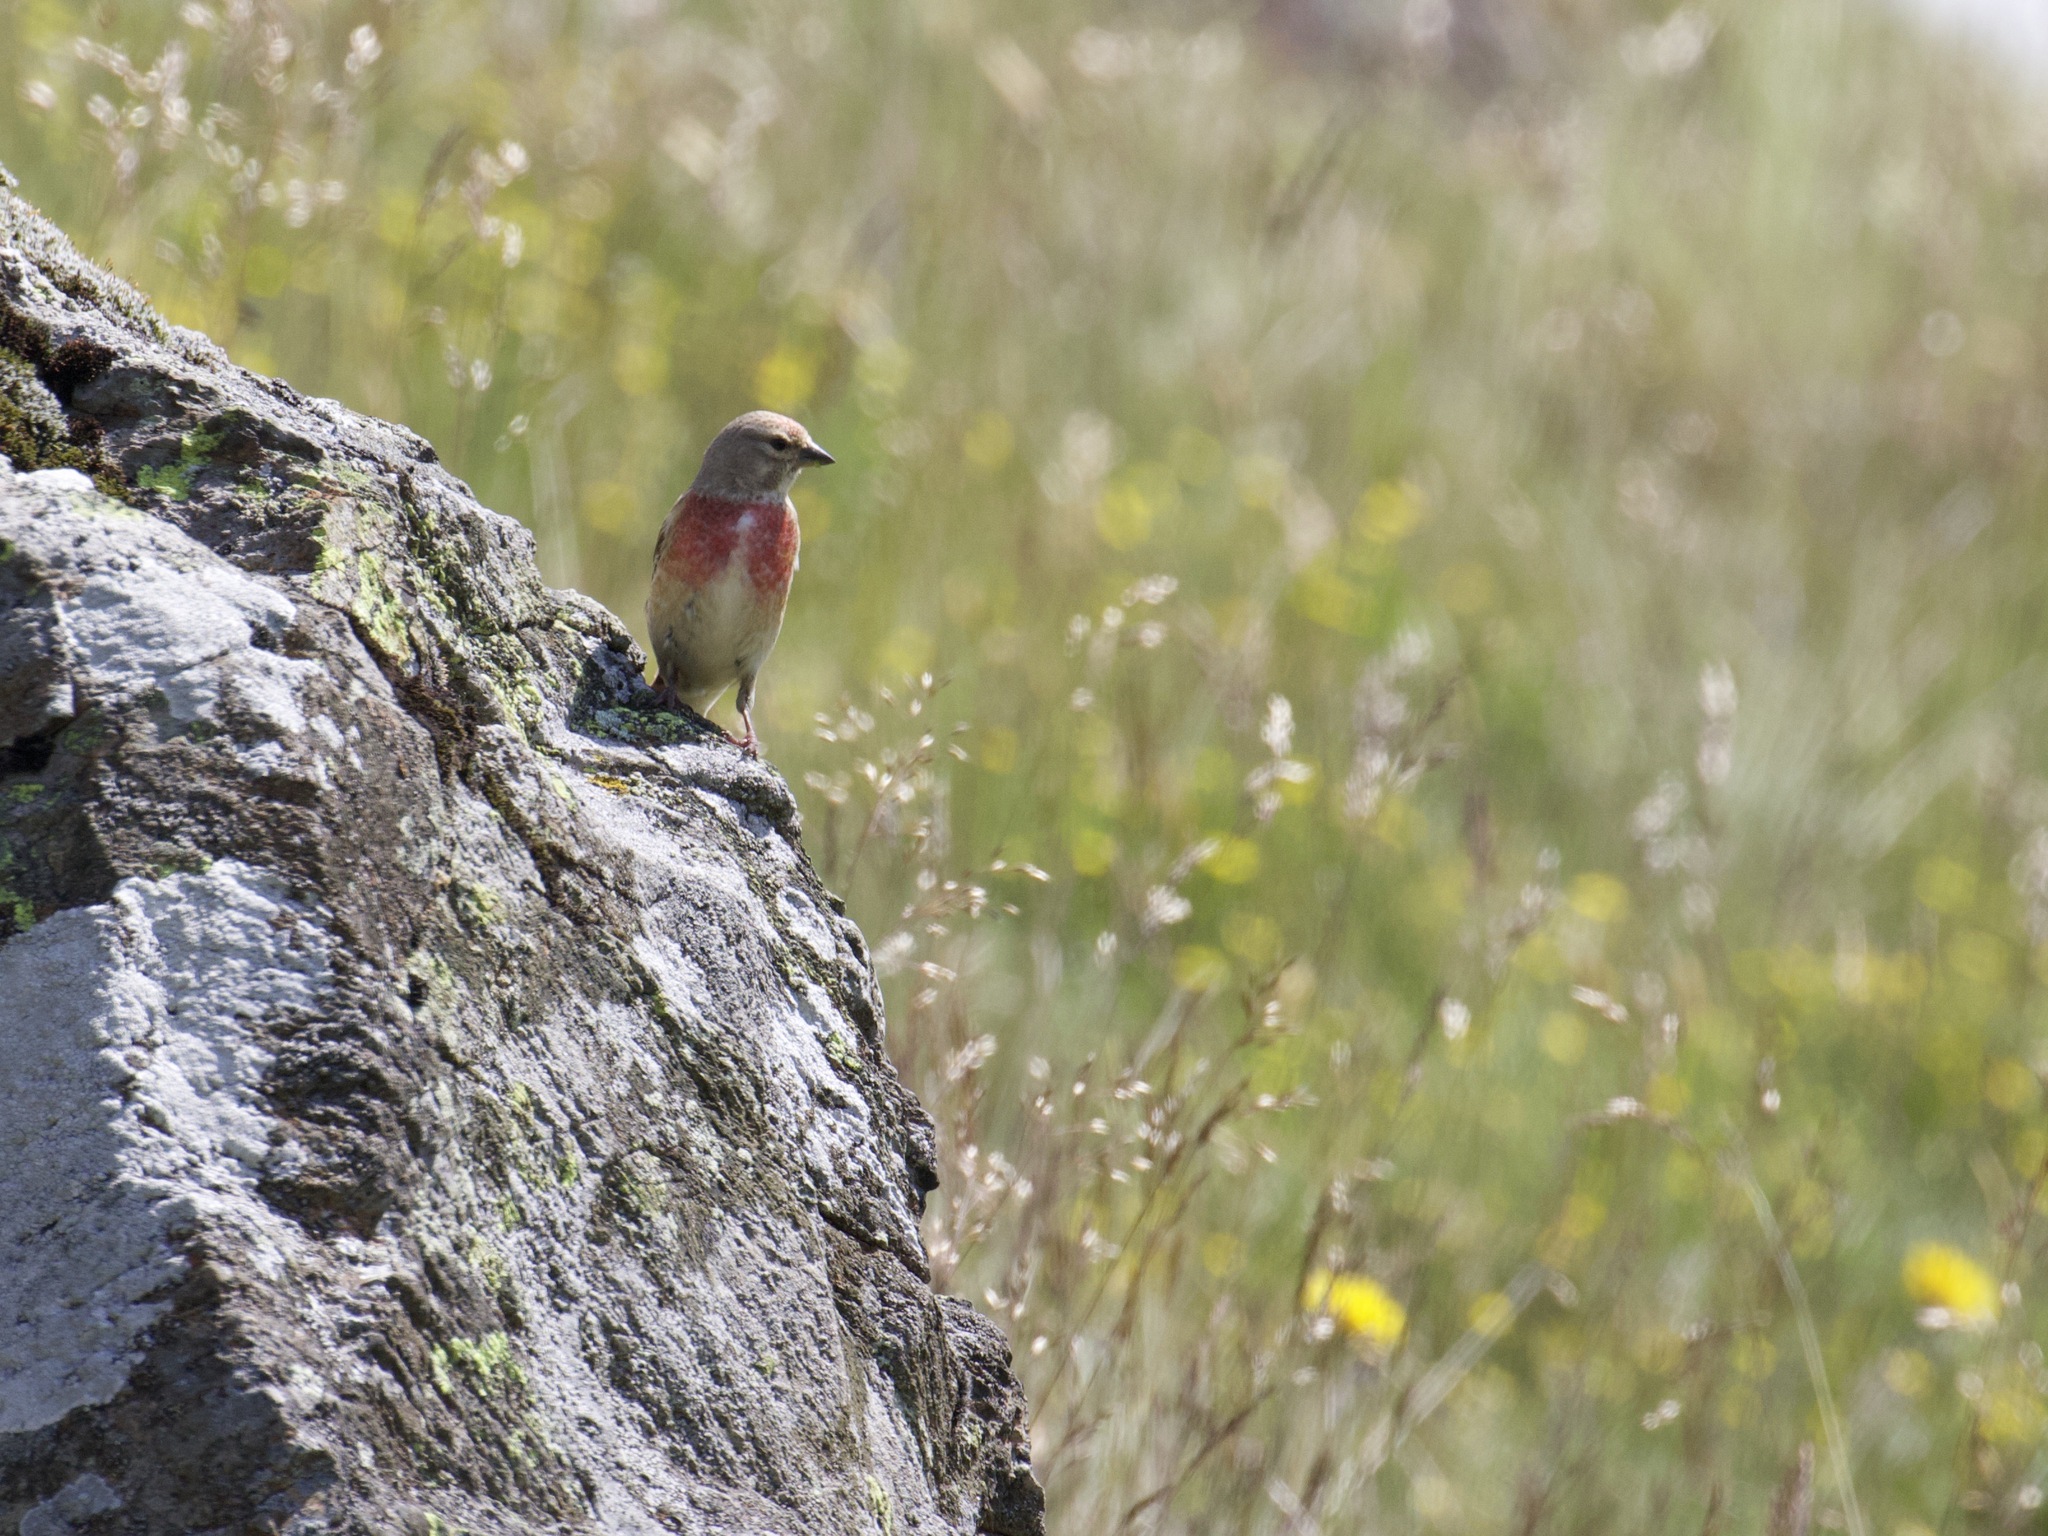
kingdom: Animalia
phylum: Chordata
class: Aves
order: Passeriformes
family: Fringillidae
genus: Linaria
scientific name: Linaria cannabina
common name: Common linnet
